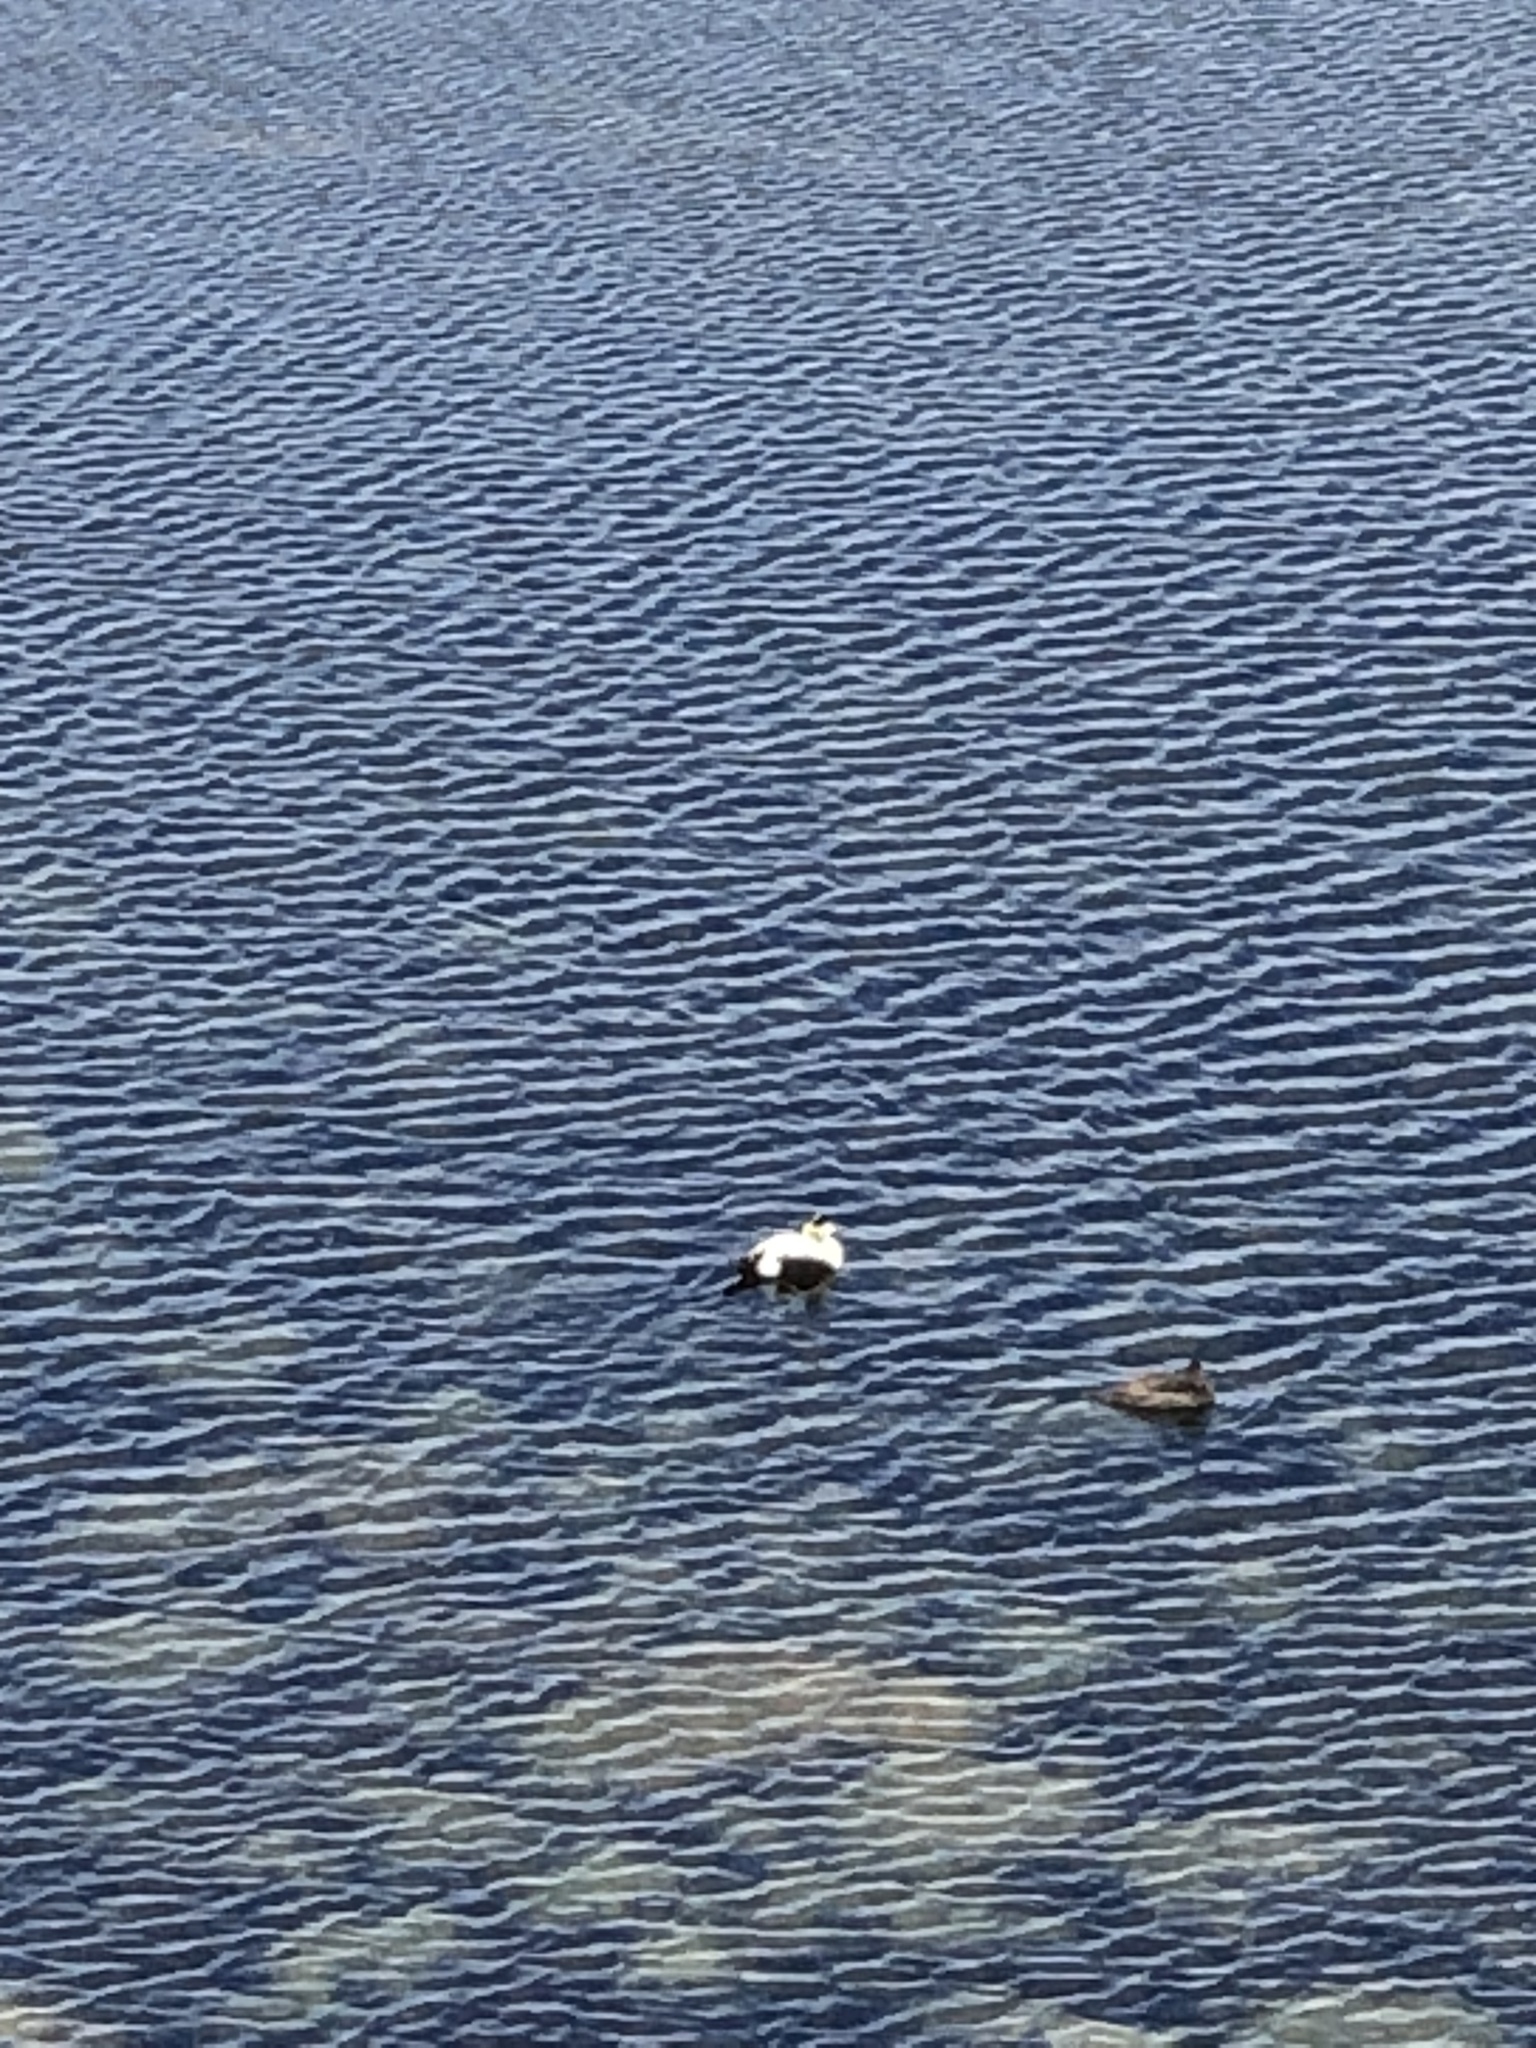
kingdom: Animalia
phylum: Chordata
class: Aves
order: Anseriformes
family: Anatidae
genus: Somateria
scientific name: Somateria mollissima
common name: Common eider
